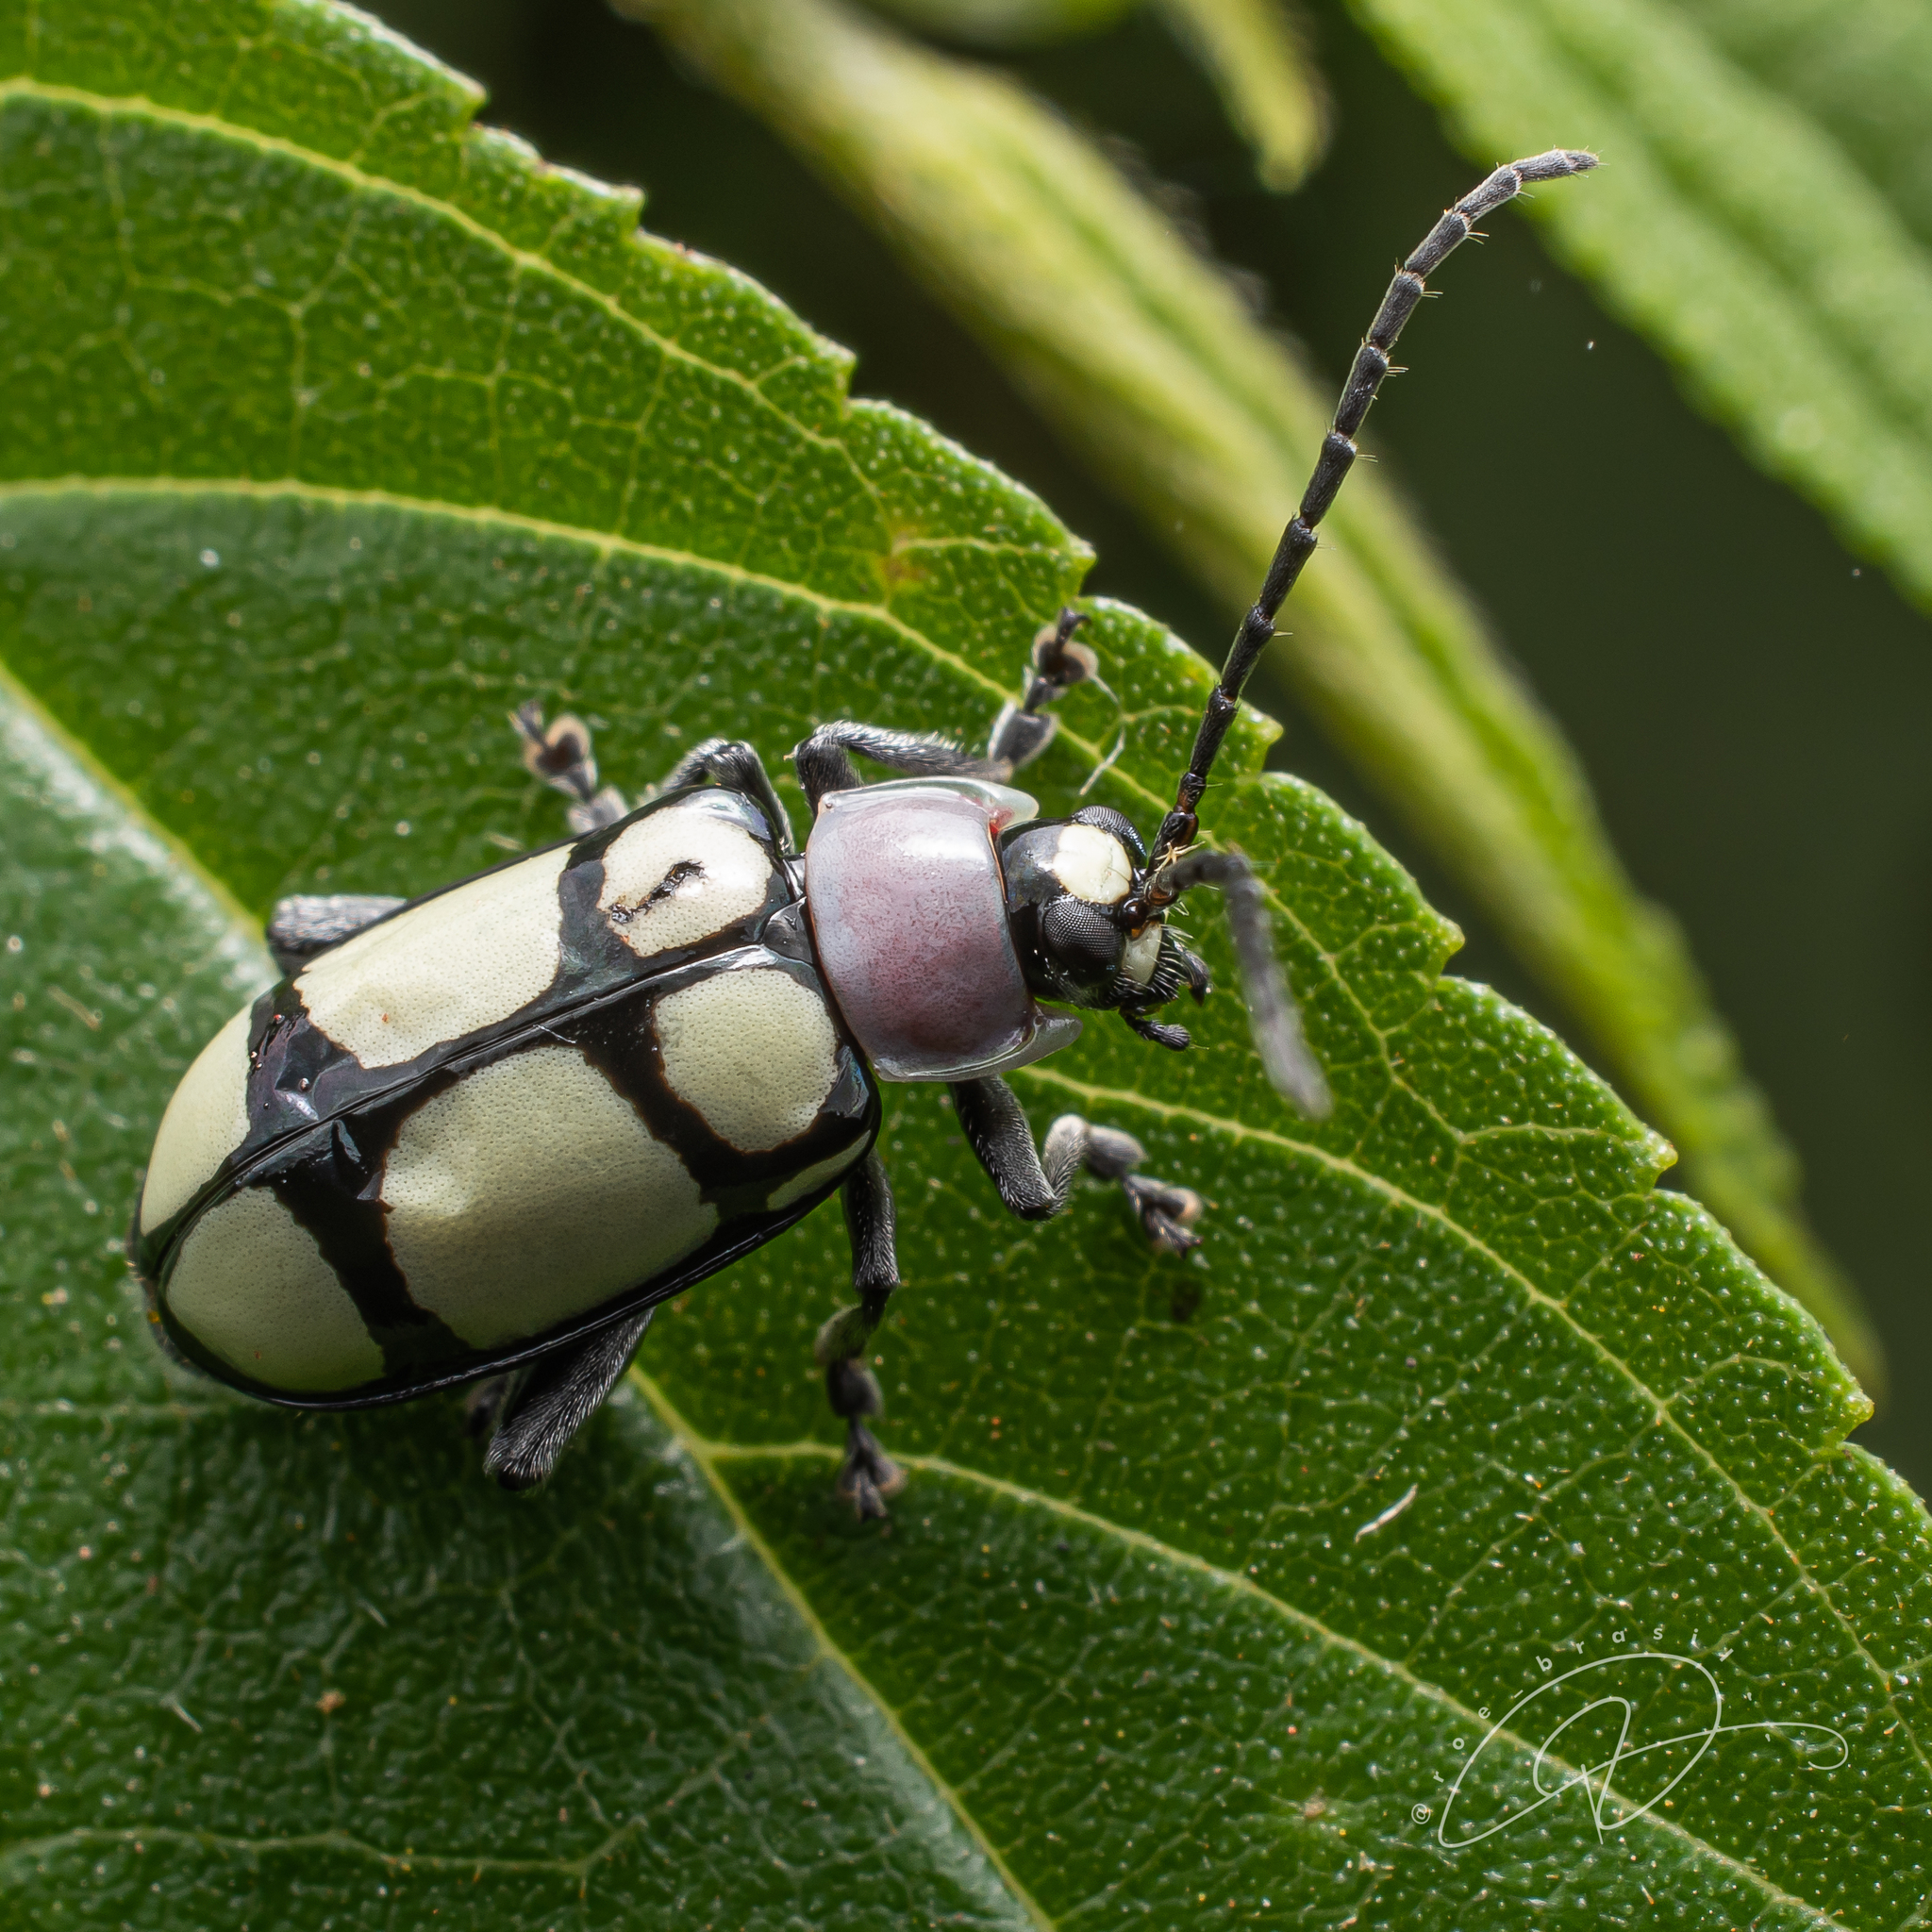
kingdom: Animalia
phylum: Arthropoda
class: Insecta
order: Coleoptera
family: Chrysomelidae
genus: Omophoita
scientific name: Omophoita
